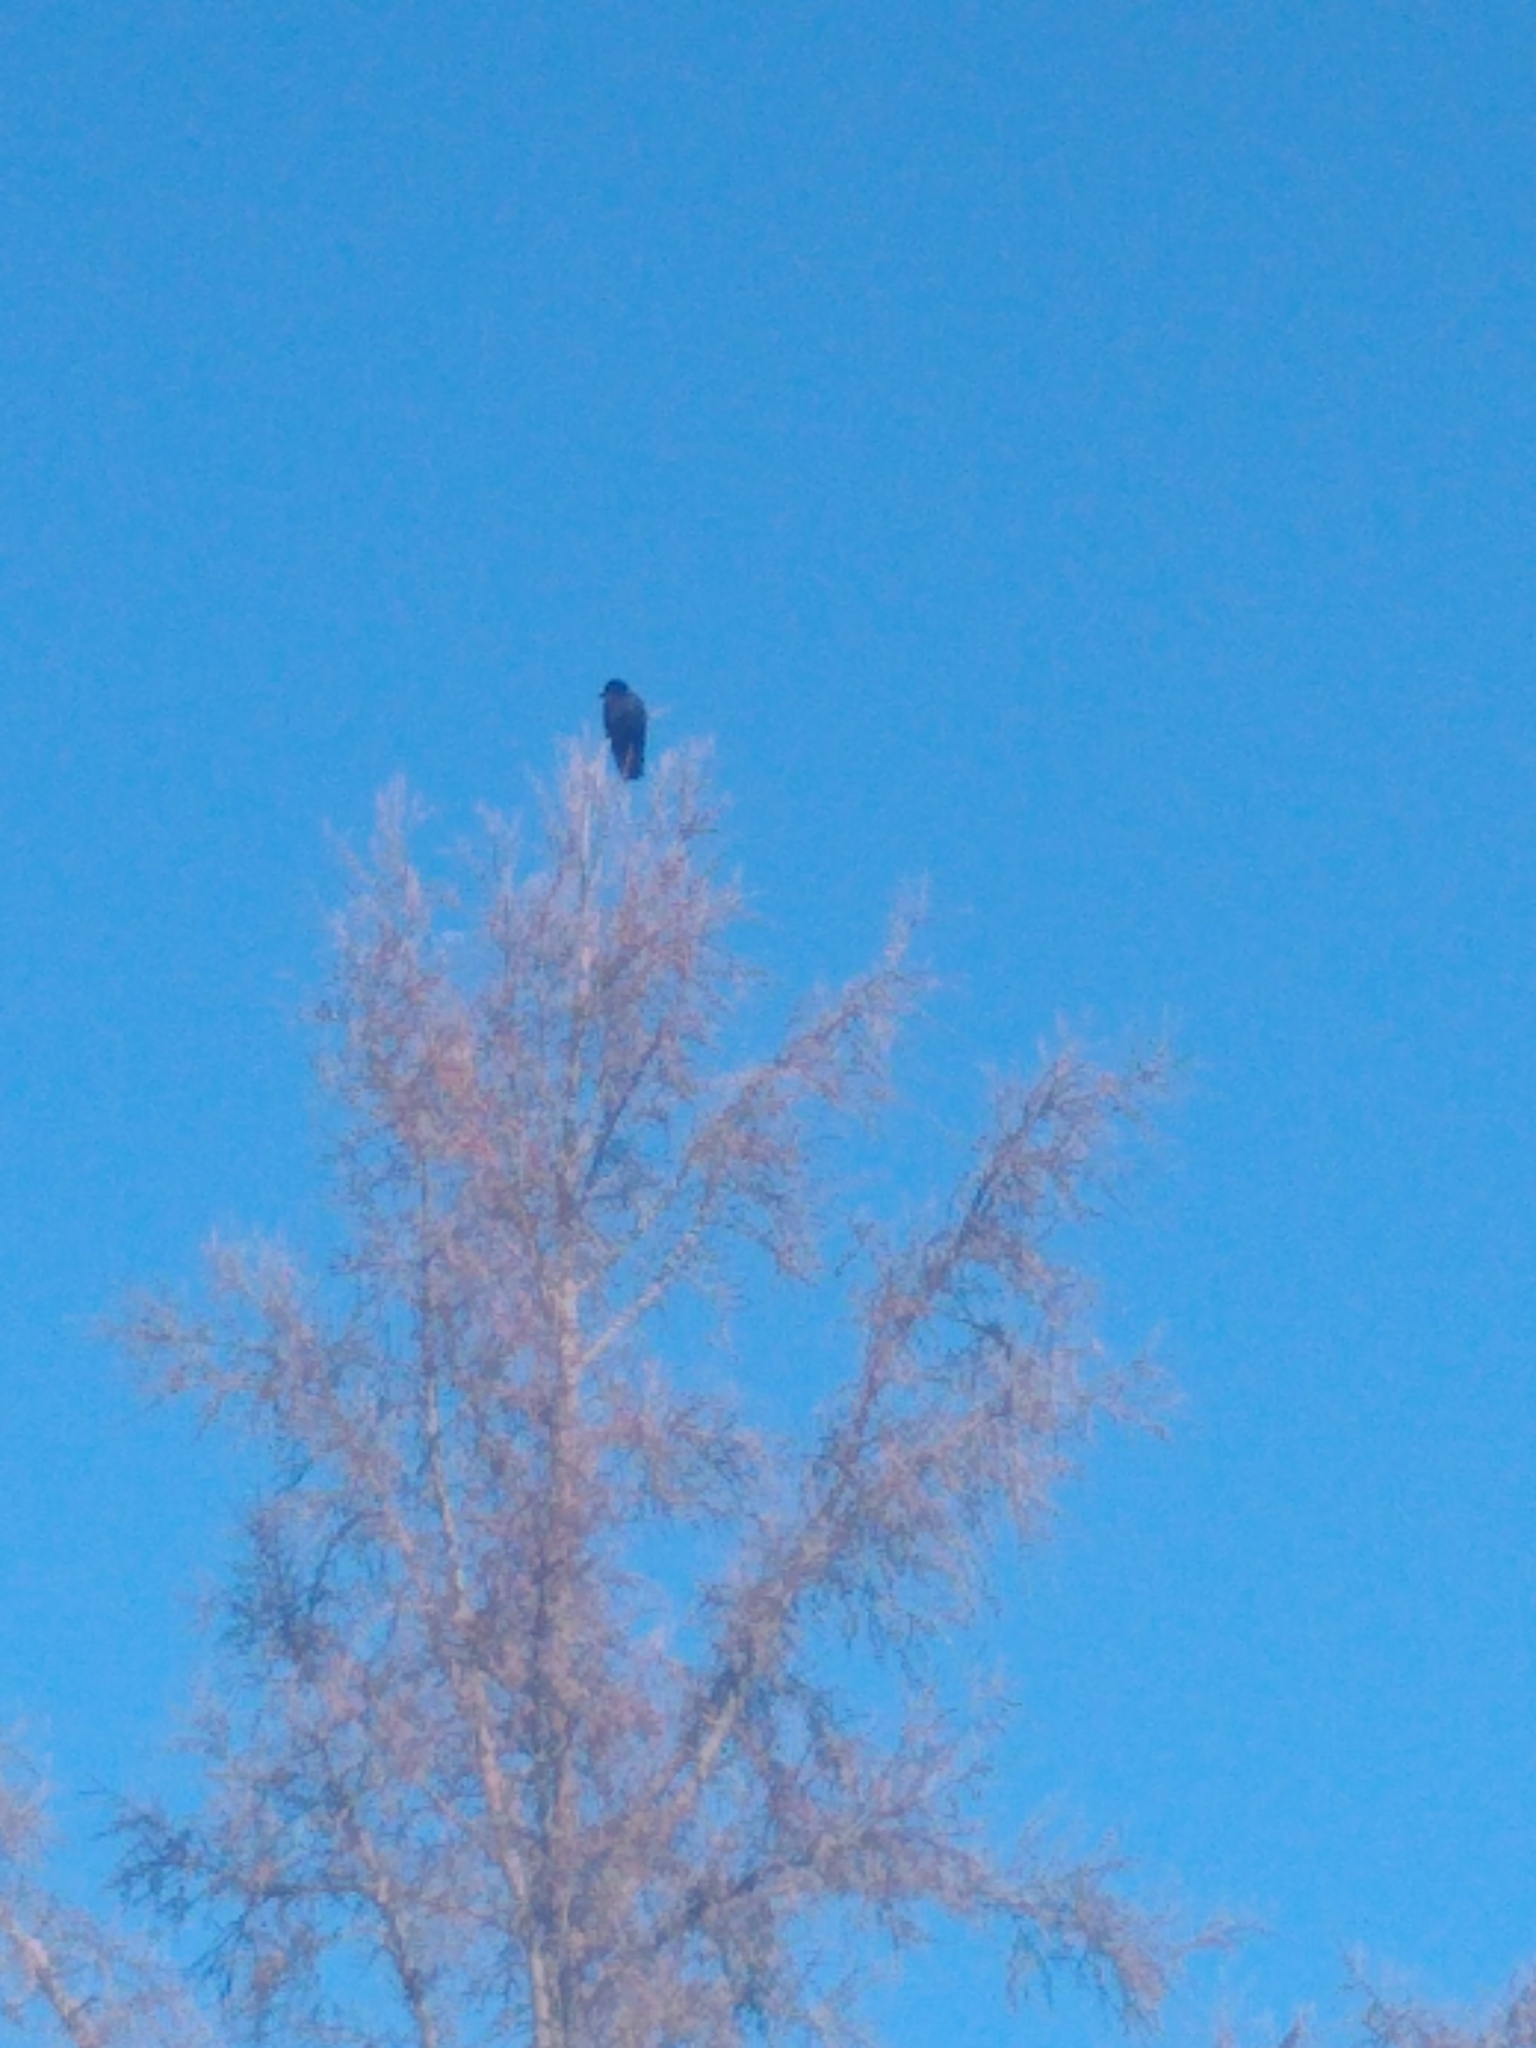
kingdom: Animalia
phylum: Chordata
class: Aves
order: Passeriformes
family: Corvidae
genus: Corvus
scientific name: Corvus brachyrhynchos
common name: American crow
